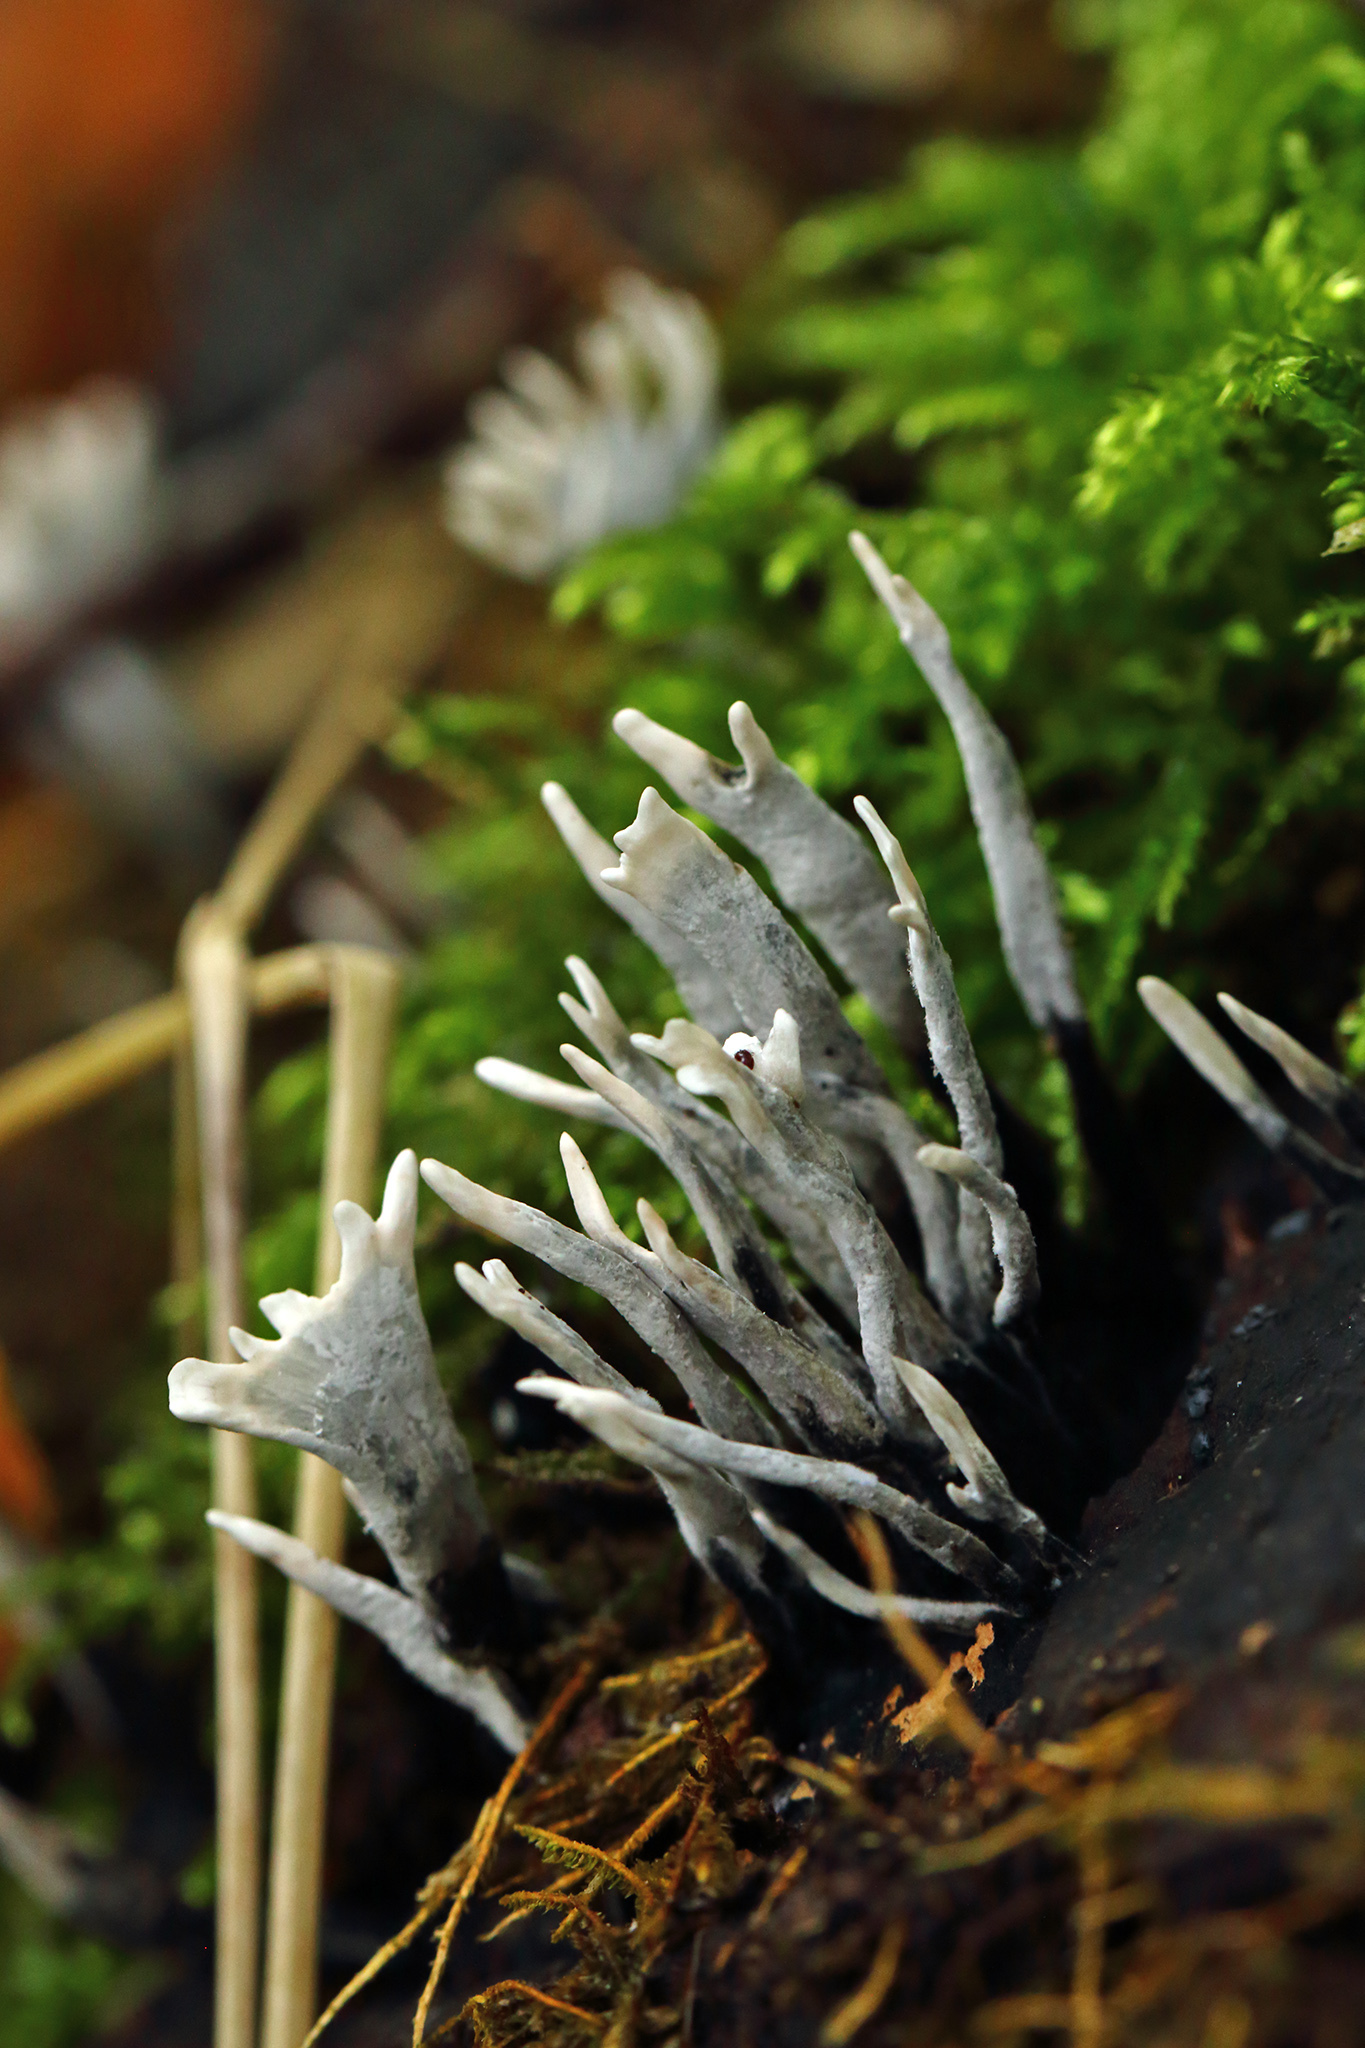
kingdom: Fungi
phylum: Ascomycota
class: Sordariomycetes
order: Xylariales
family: Xylariaceae
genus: Xylaria
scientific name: Xylaria hypoxylon
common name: Candle-snuff fungus
